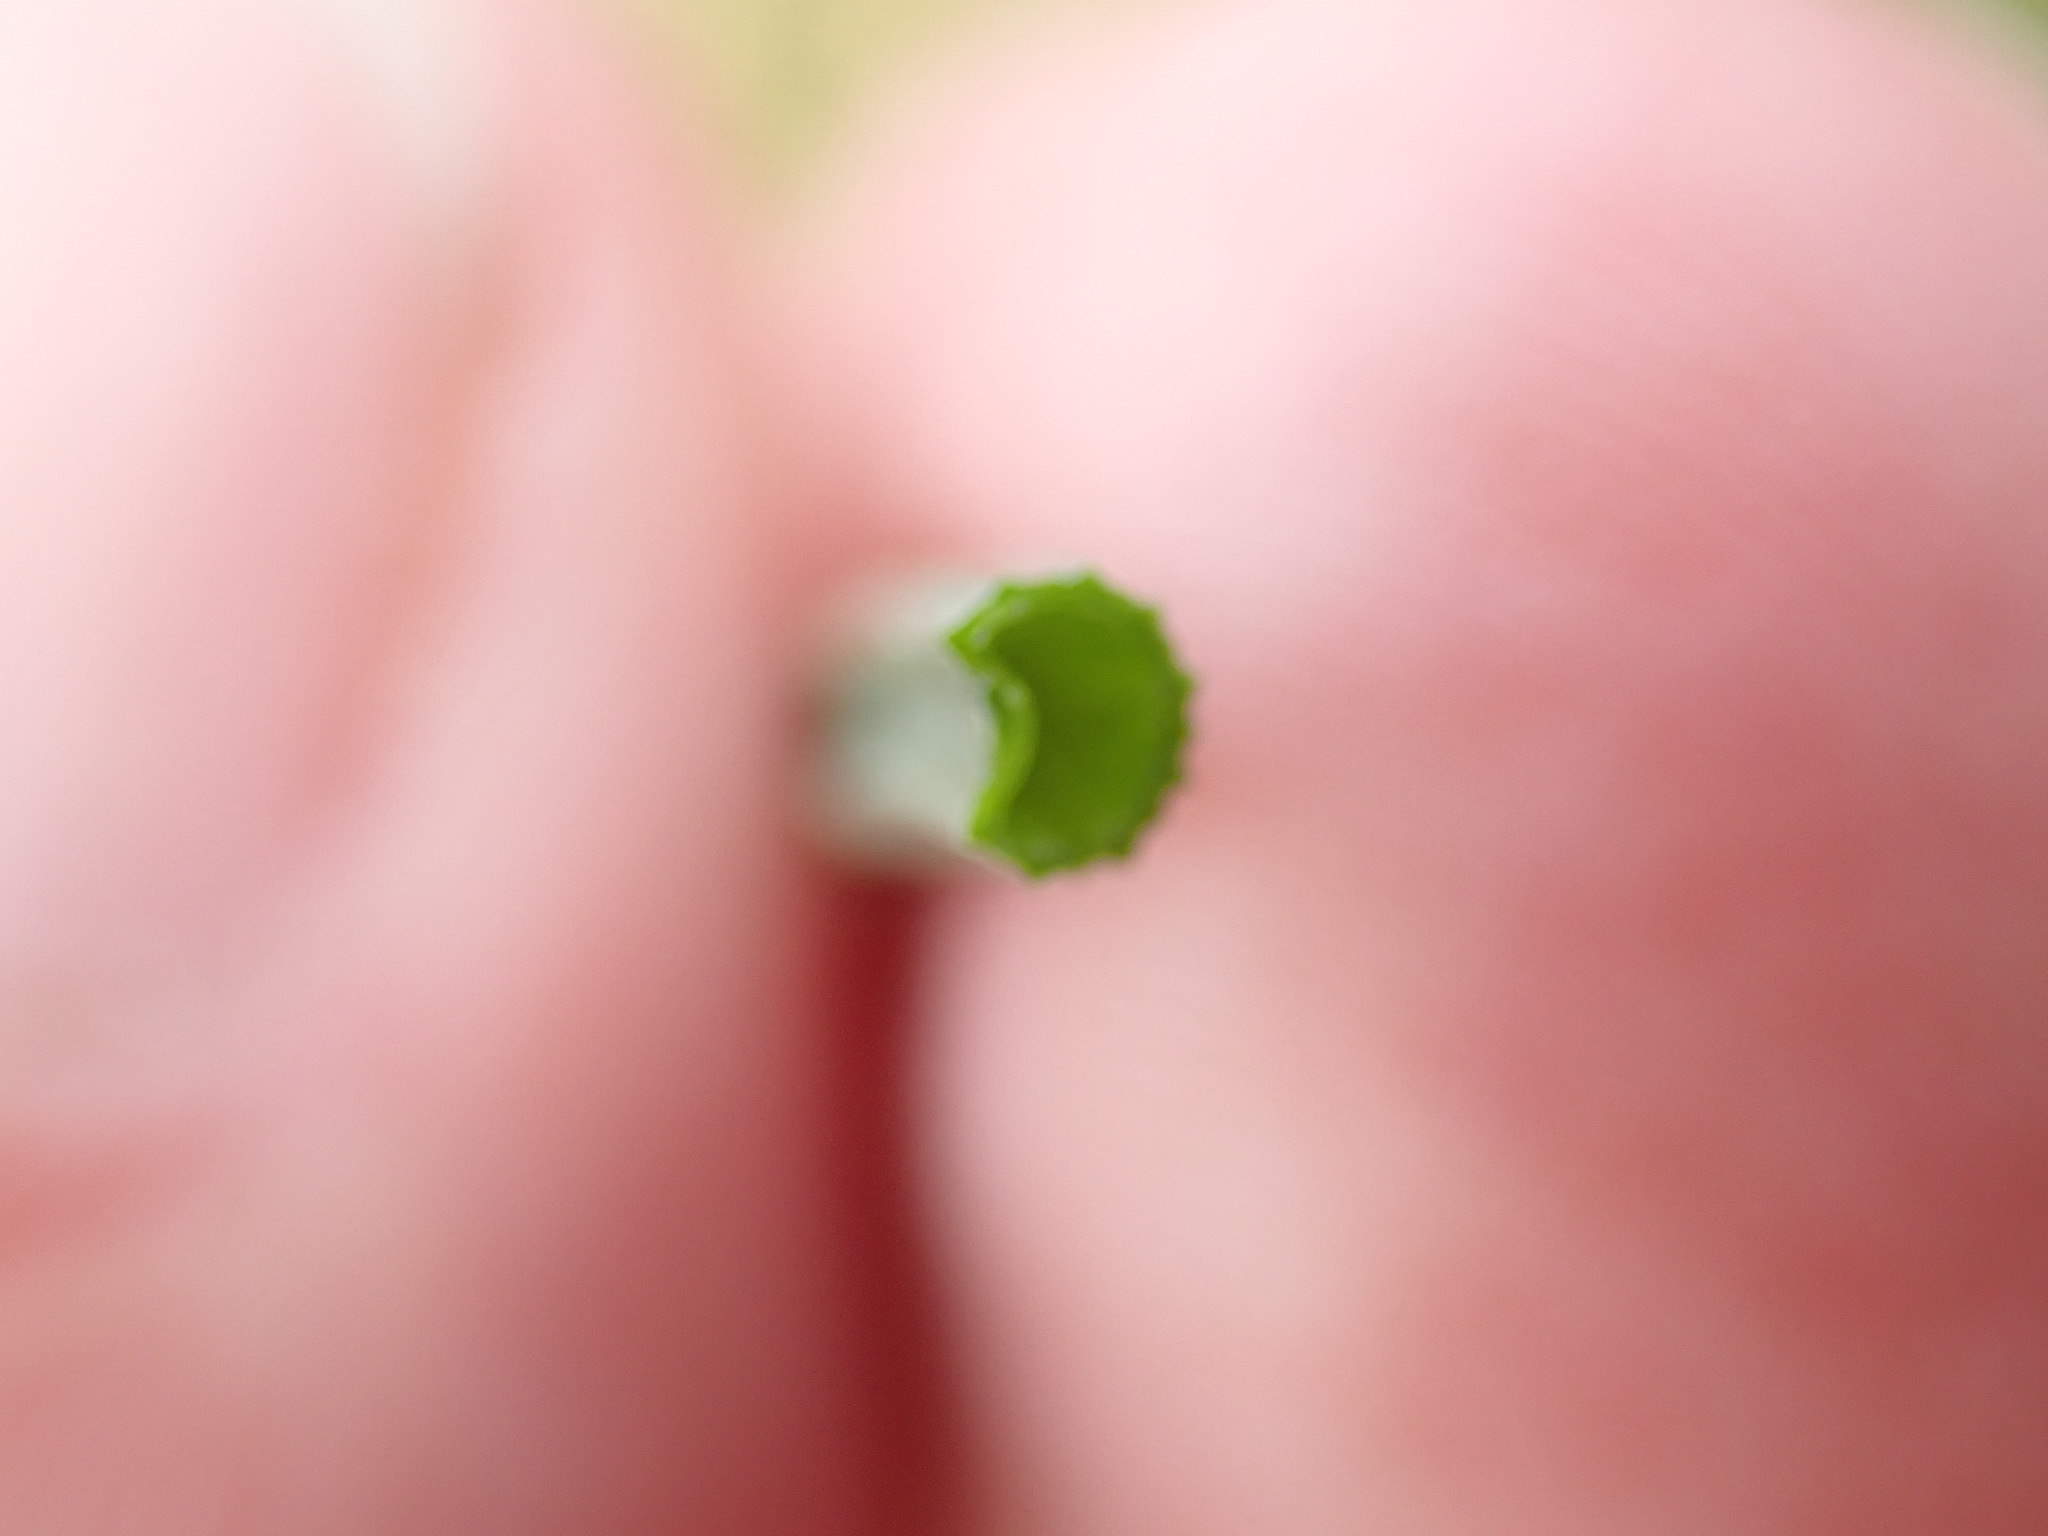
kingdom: Plantae
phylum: Tracheophyta
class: Liliopsida
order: Asparagales
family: Amaryllidaceae
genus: Allium
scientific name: Allium vineale
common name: Crow garlic
